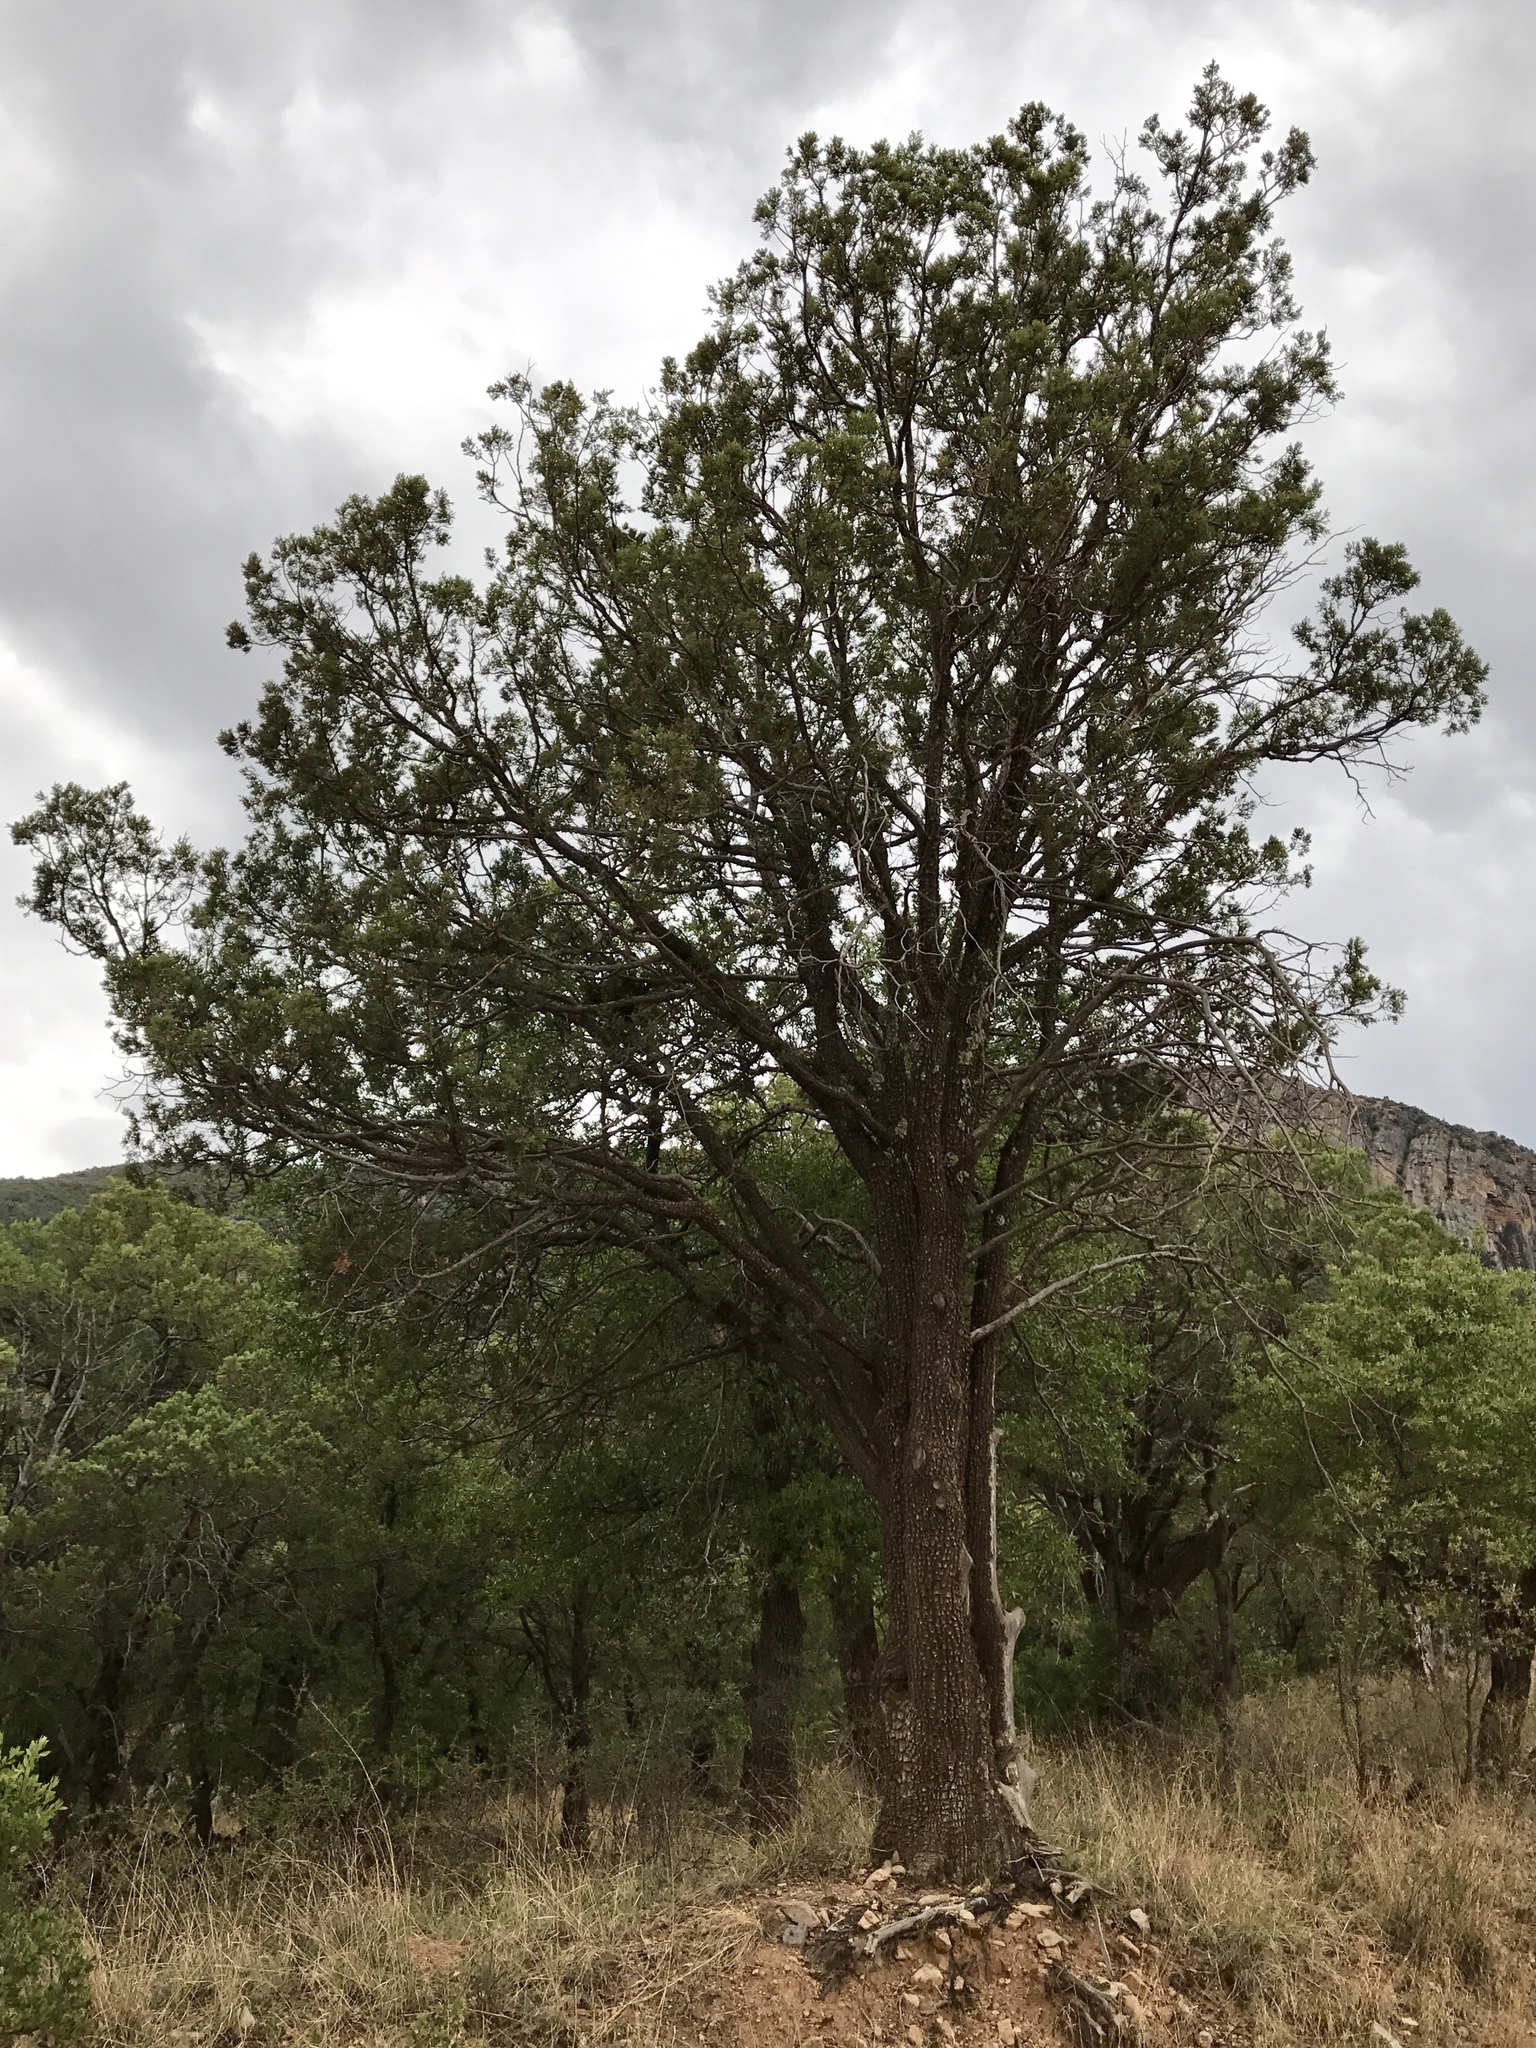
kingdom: Plantae
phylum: Tracheophyta
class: Pinopsida
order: Pinales
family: Cupressaceae
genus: Juniperus
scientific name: Juniperus deppeana
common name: Alligator juniper
